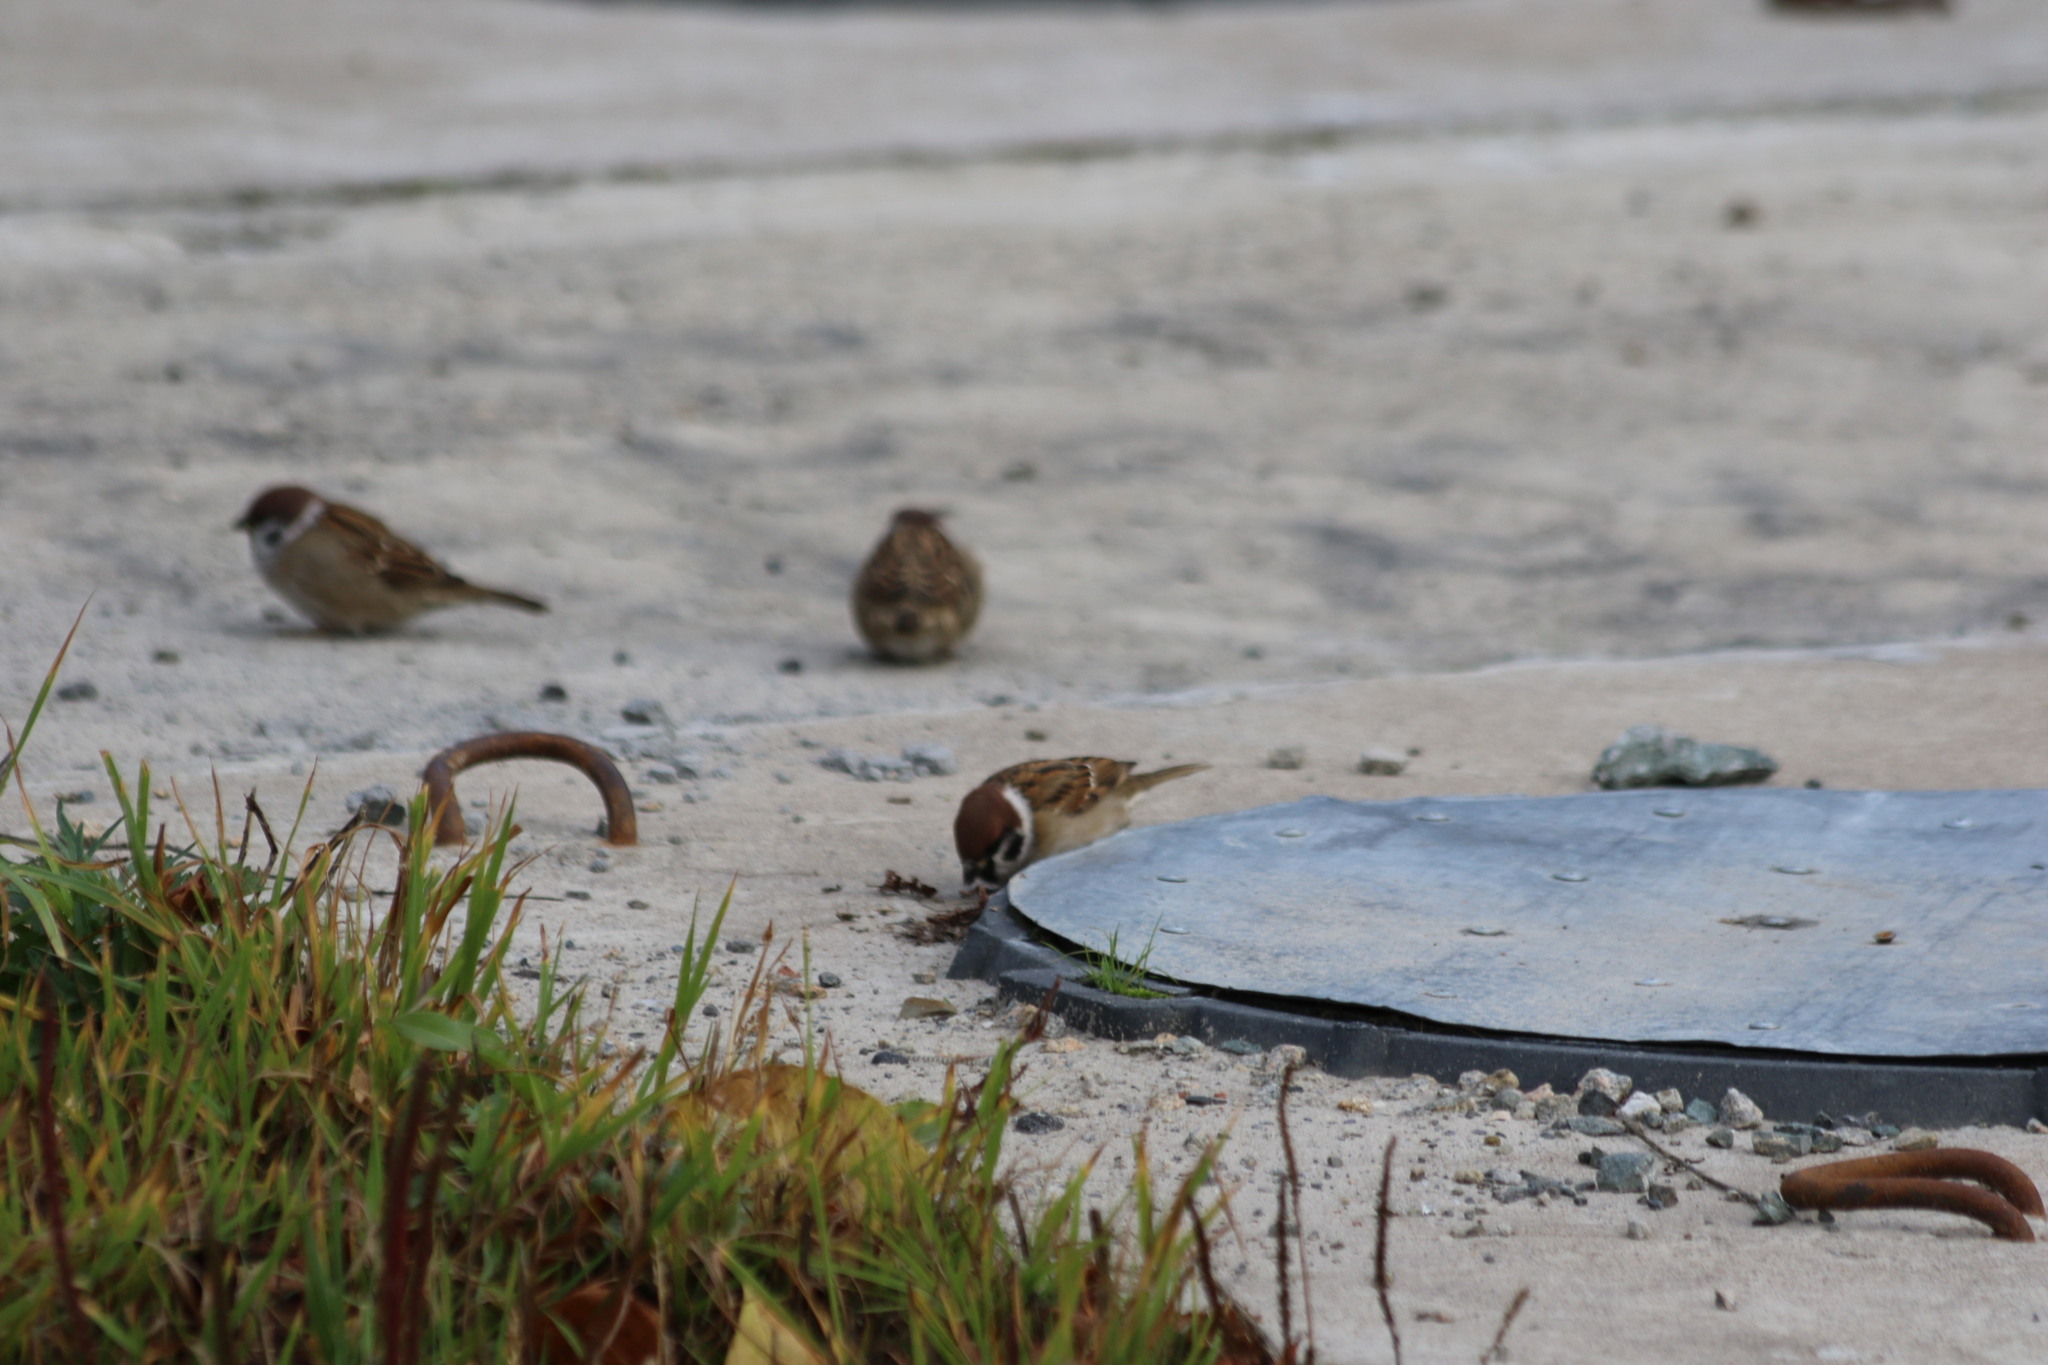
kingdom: Animalia
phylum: Chordata
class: Aves
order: Passeriformes
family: Passeridae
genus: Passer
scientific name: Passer montanus
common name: Eurasian tree sparrow
